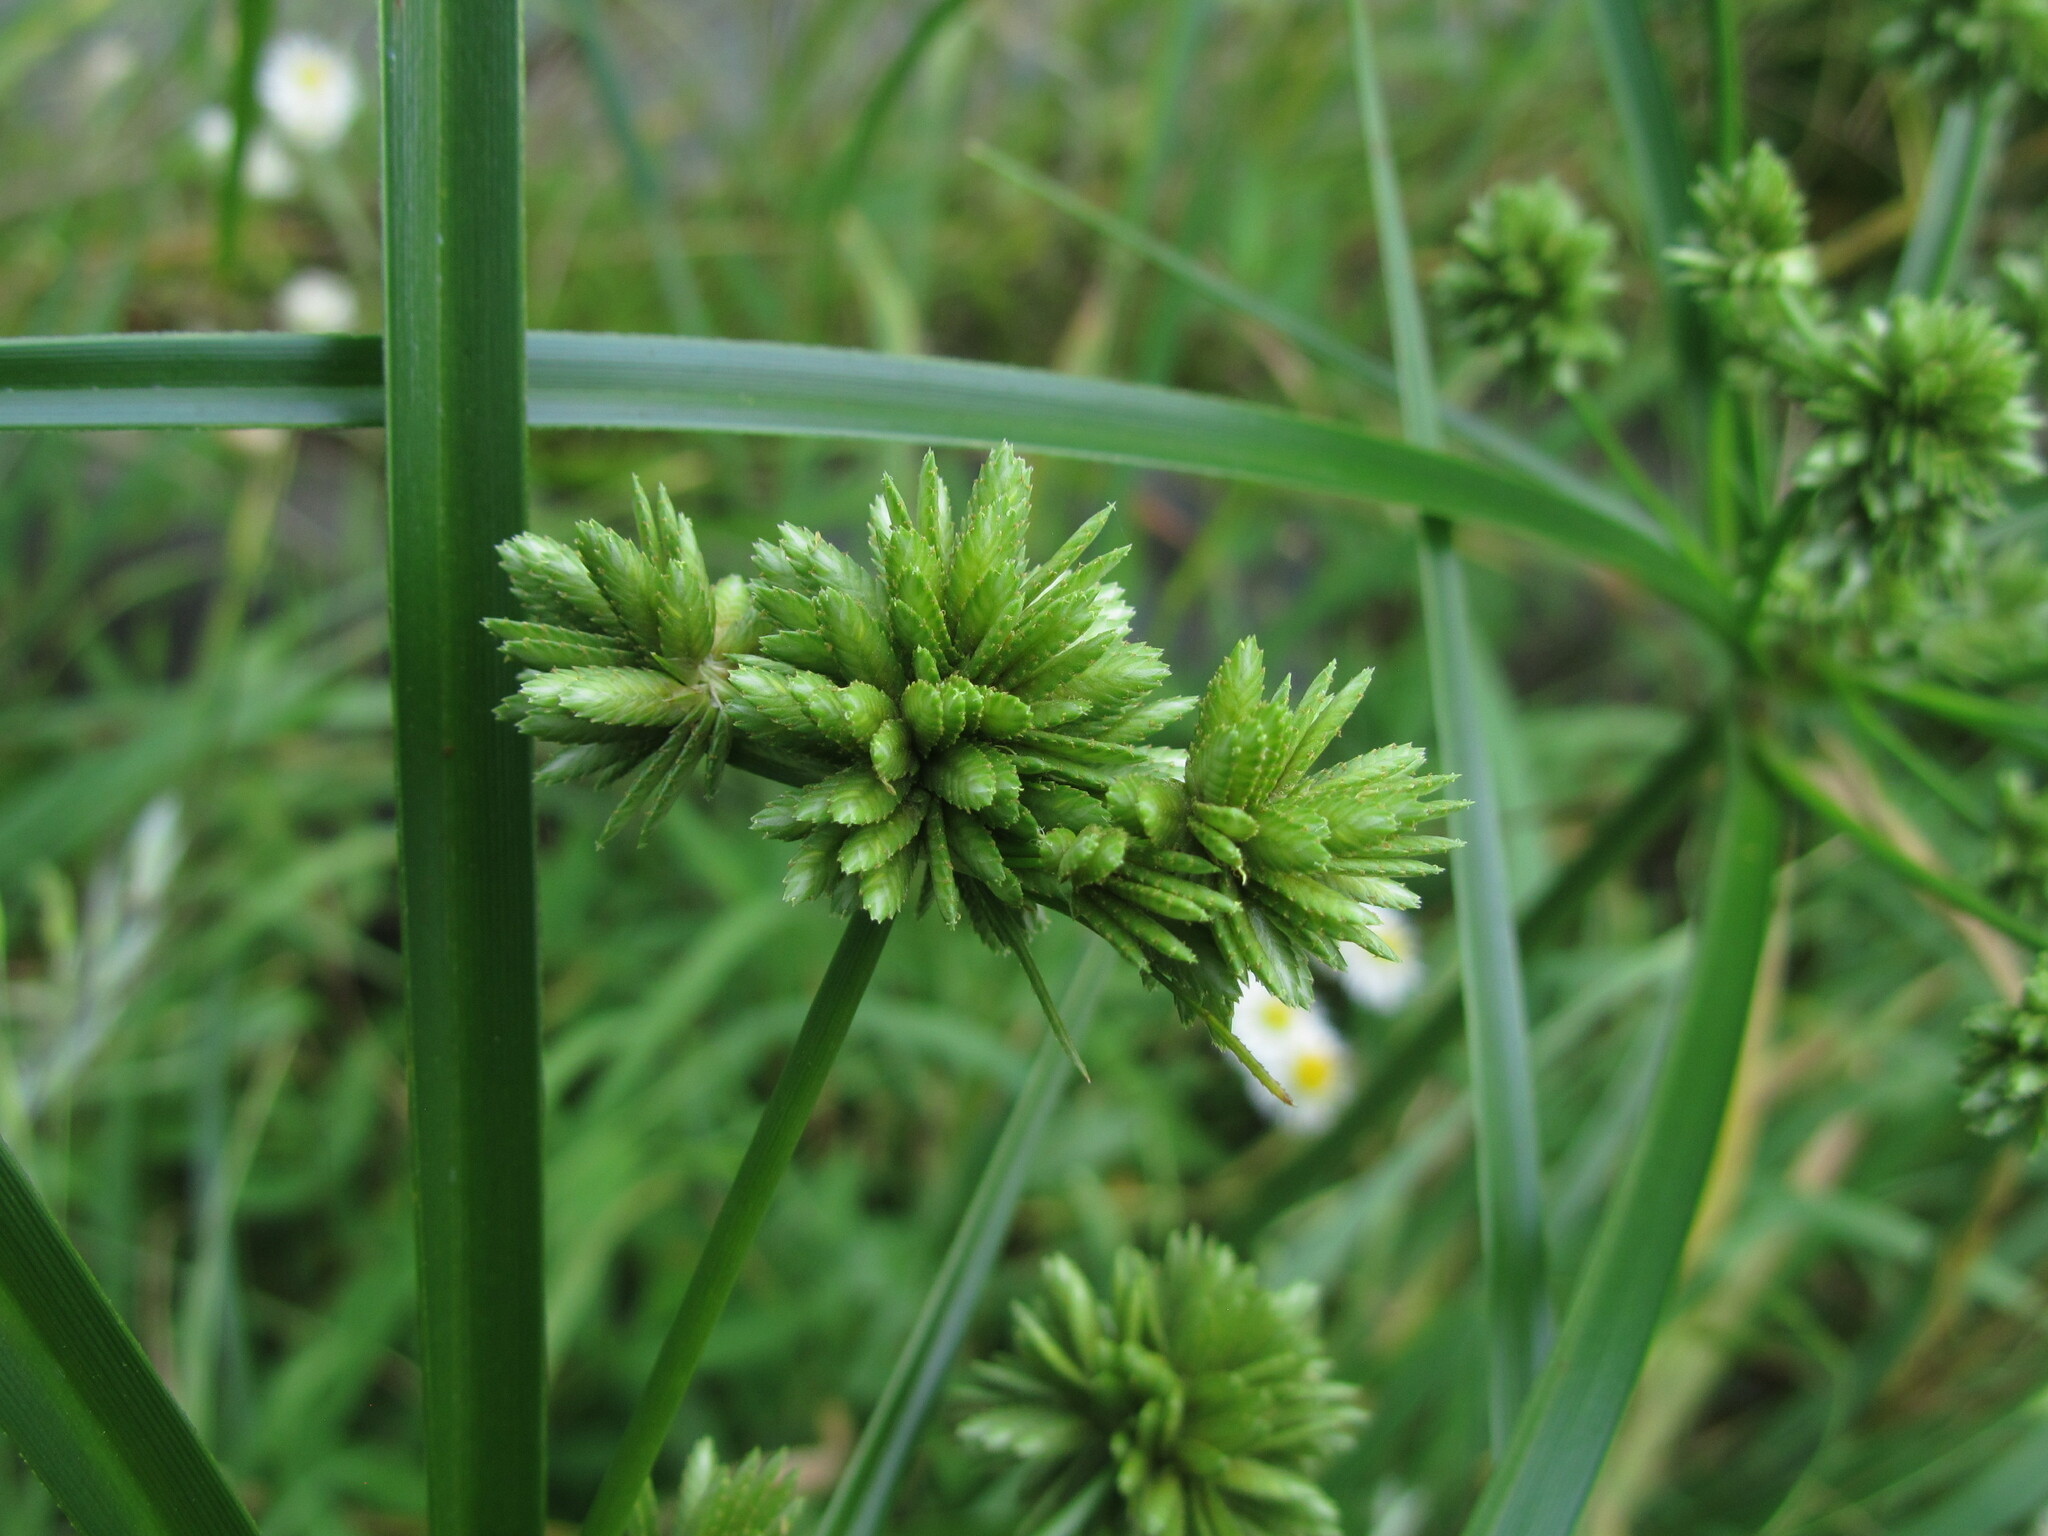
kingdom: Plantae
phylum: Tracheophyta
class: Liliopsida
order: Poales
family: Cyperaceae
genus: Cyperus
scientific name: Cyperus eragrostis
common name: Tall flatsedge
